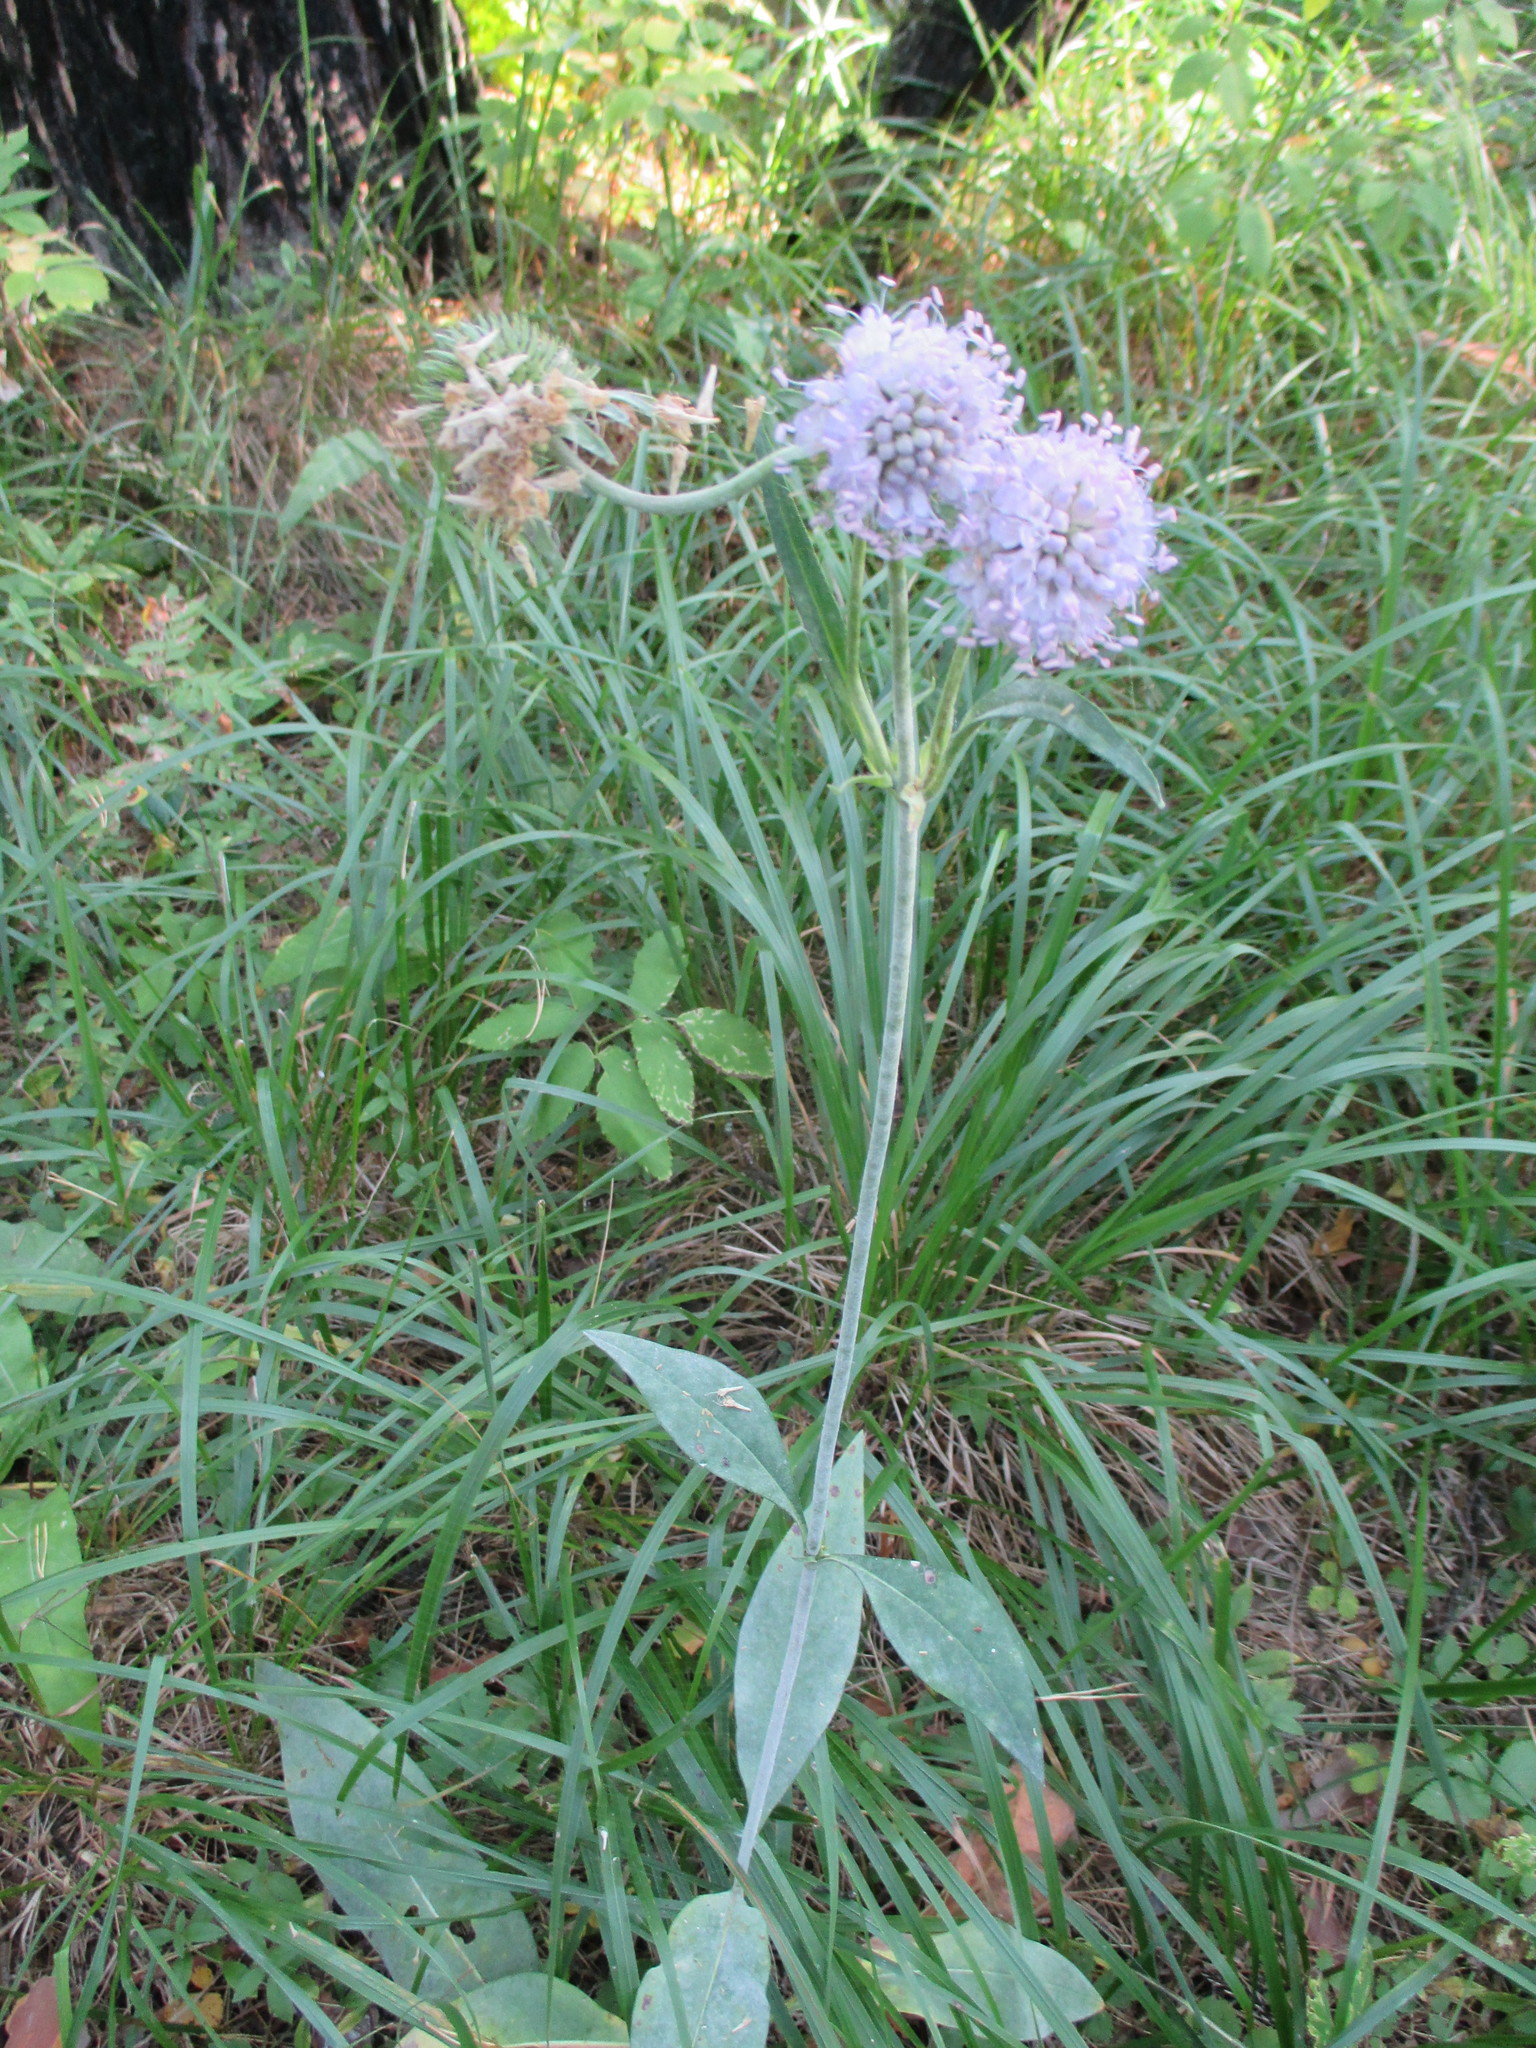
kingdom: Plantae
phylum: Tracheophyta
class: Magnoliopsida
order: Dipsacales
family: Caprifoliaceae
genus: Succisa
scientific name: Succisa pratensis
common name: Devil's-bit
